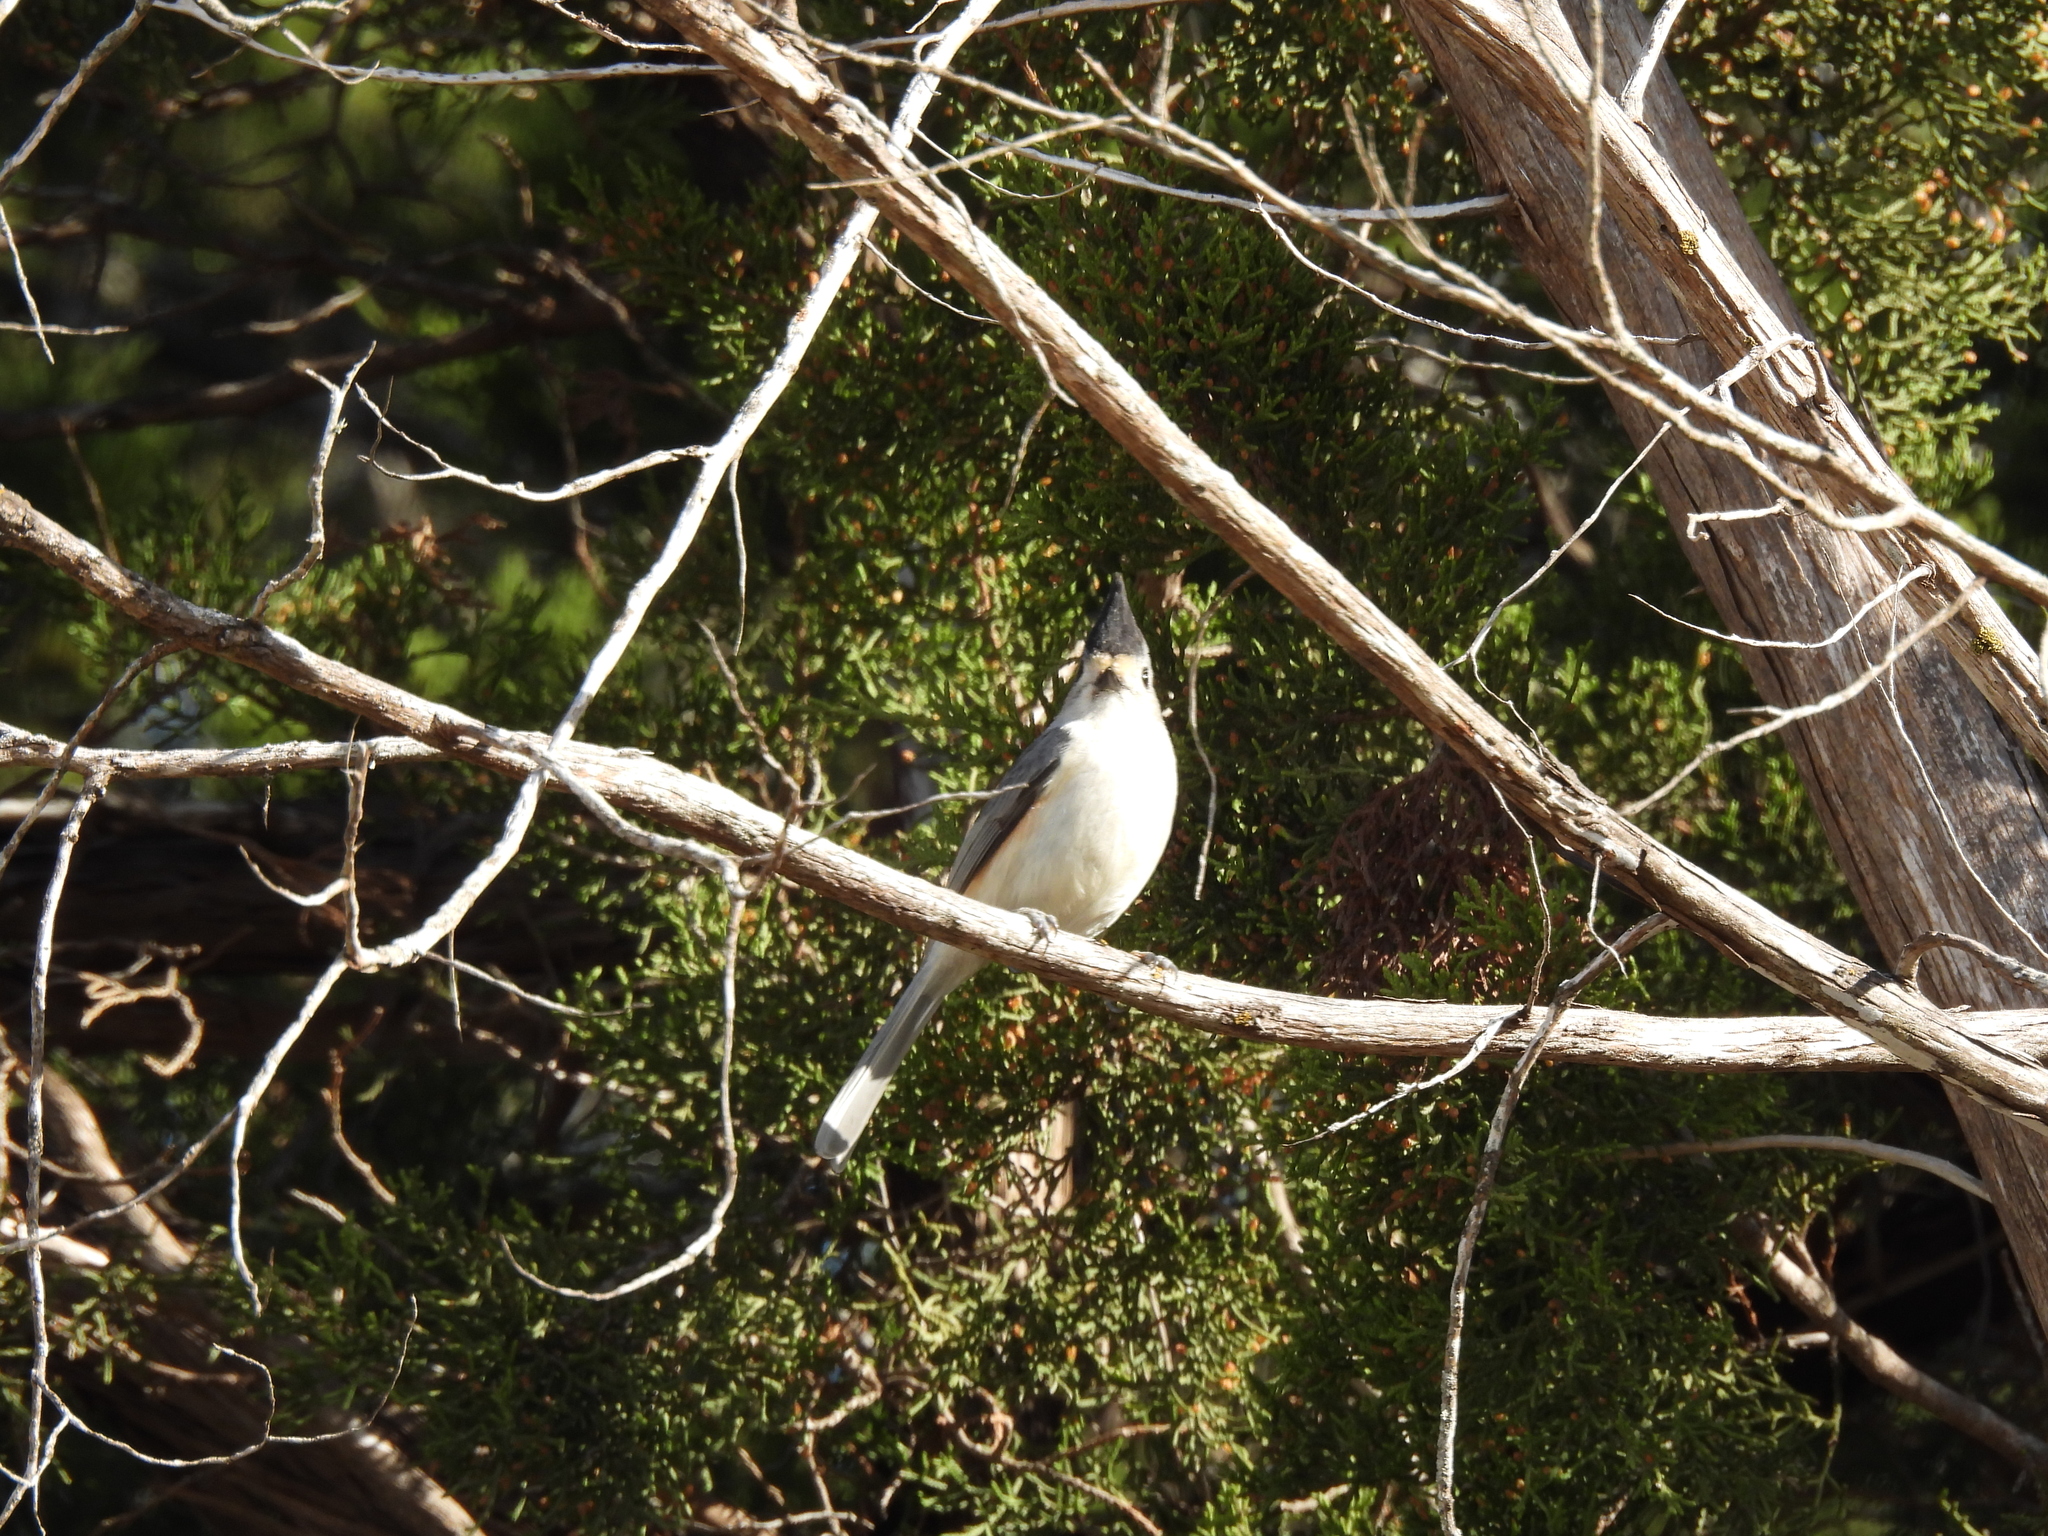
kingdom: Animalia
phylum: Chordata
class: Aves
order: Passeriformes
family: Paridae
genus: Baeolophus
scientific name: Baeolophus atricristatus
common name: Black-crested titmouse
